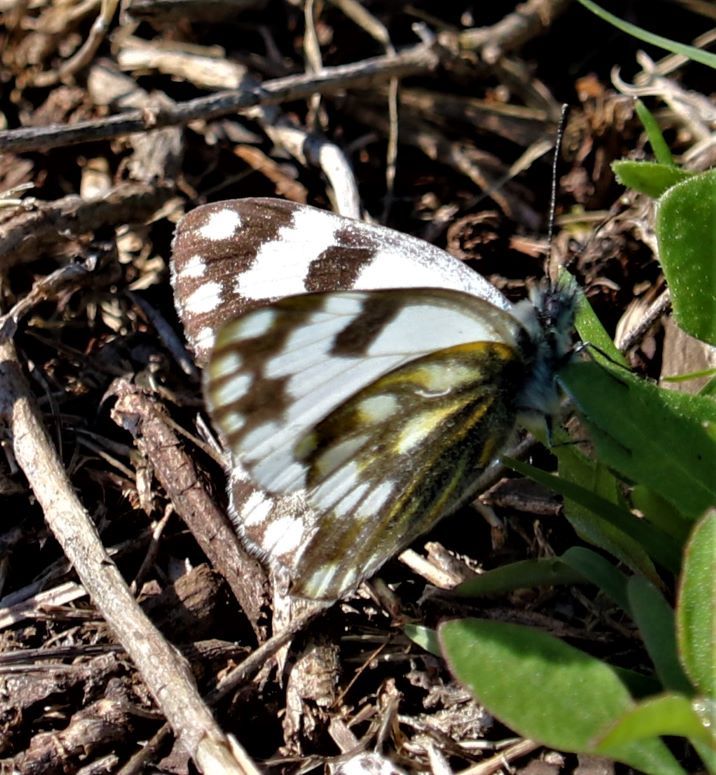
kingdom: Animalia
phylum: Arthropoda
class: Insecta
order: Lepidoptera
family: Pieridae
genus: Pontia
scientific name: Pontia helice
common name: Meadow white
